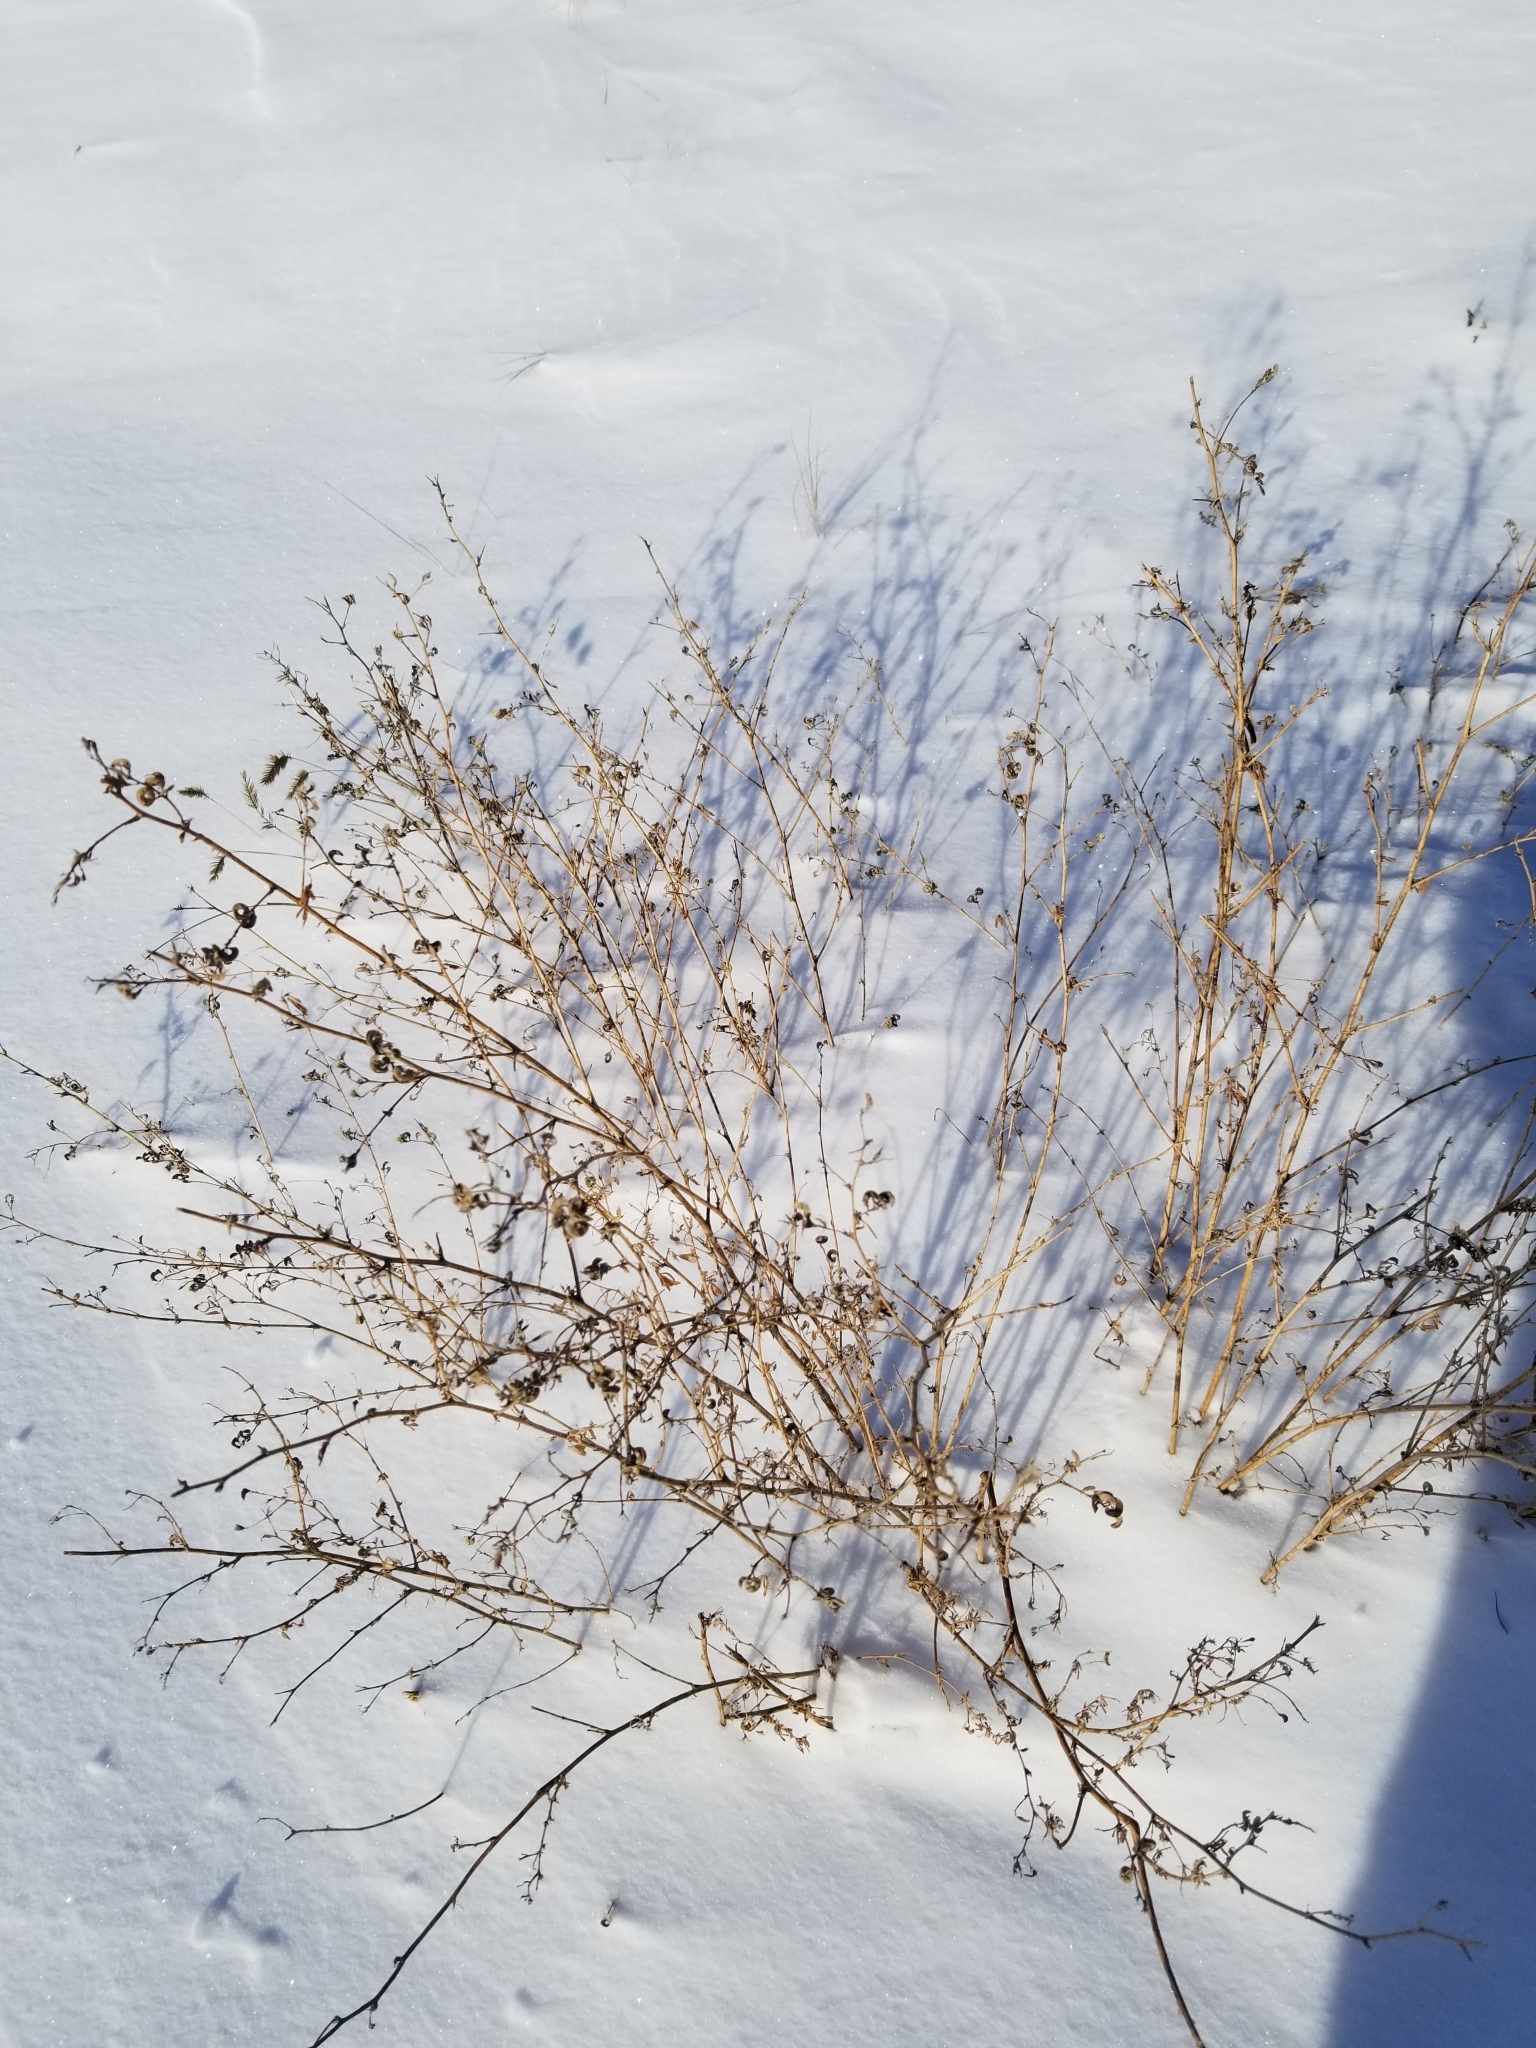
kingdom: Plantae
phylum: Tracheophyta
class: Magnoliopsida
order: Fabales
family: Fabaceae
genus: Medicago
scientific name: Medicago sativa
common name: Alfalfa
